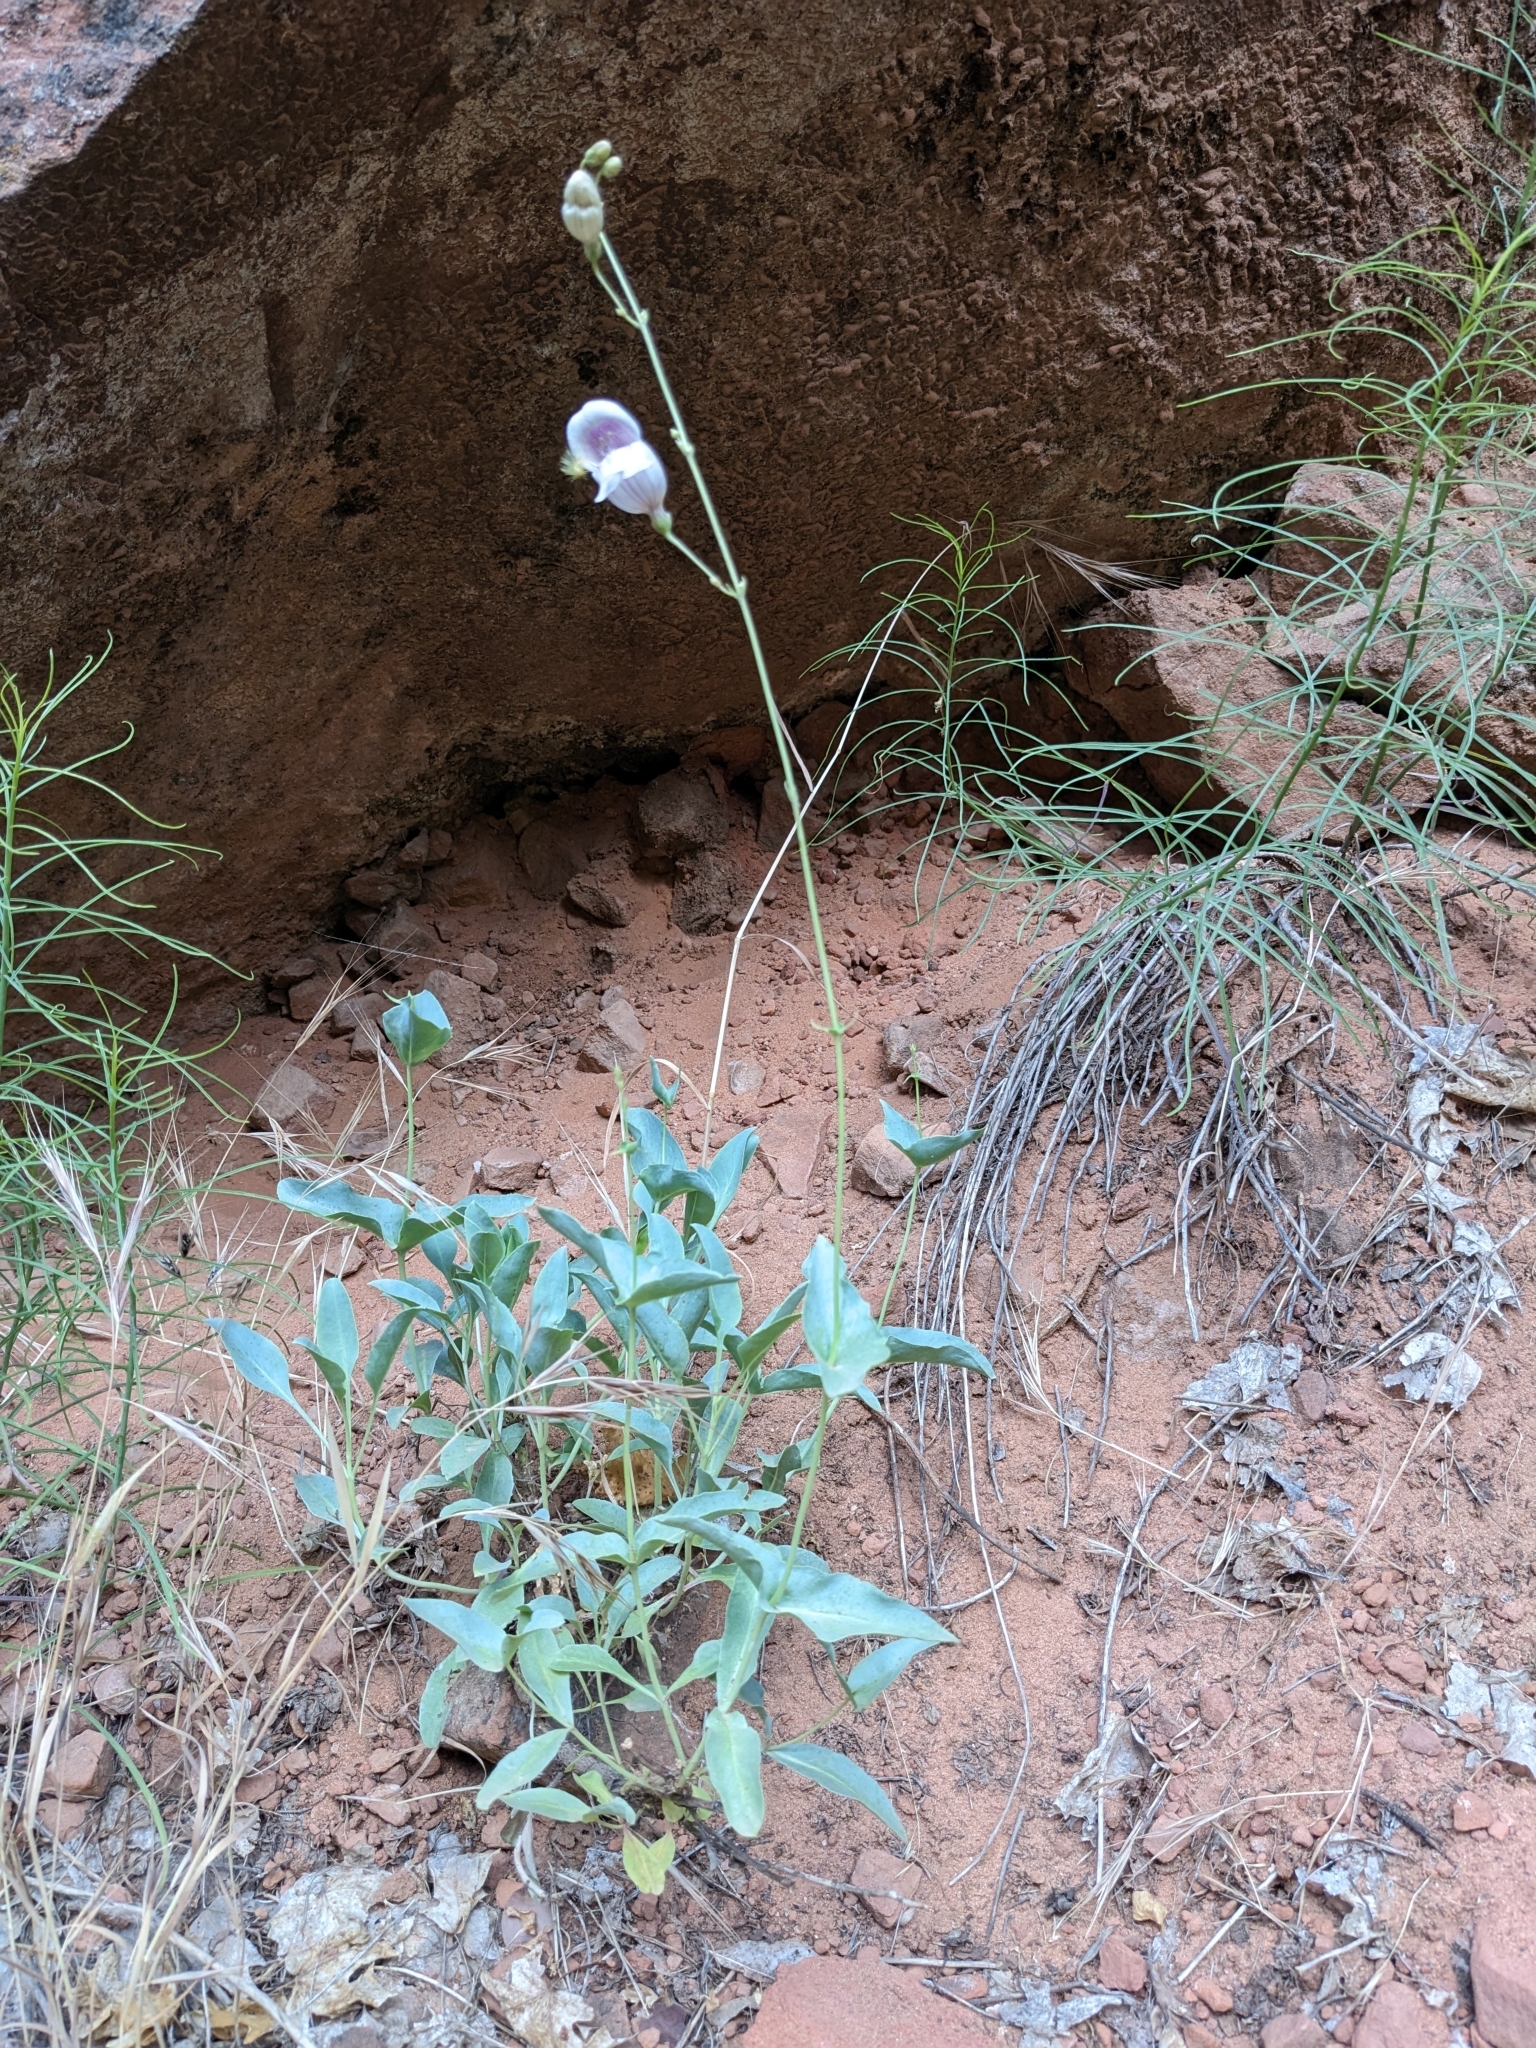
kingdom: Plantae
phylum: Tracheophyta
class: Magnoliopsida
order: Lamiales
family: Plantaginaceae
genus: Penstemon
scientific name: Penstemon palmeri
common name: Palmer penstemon
